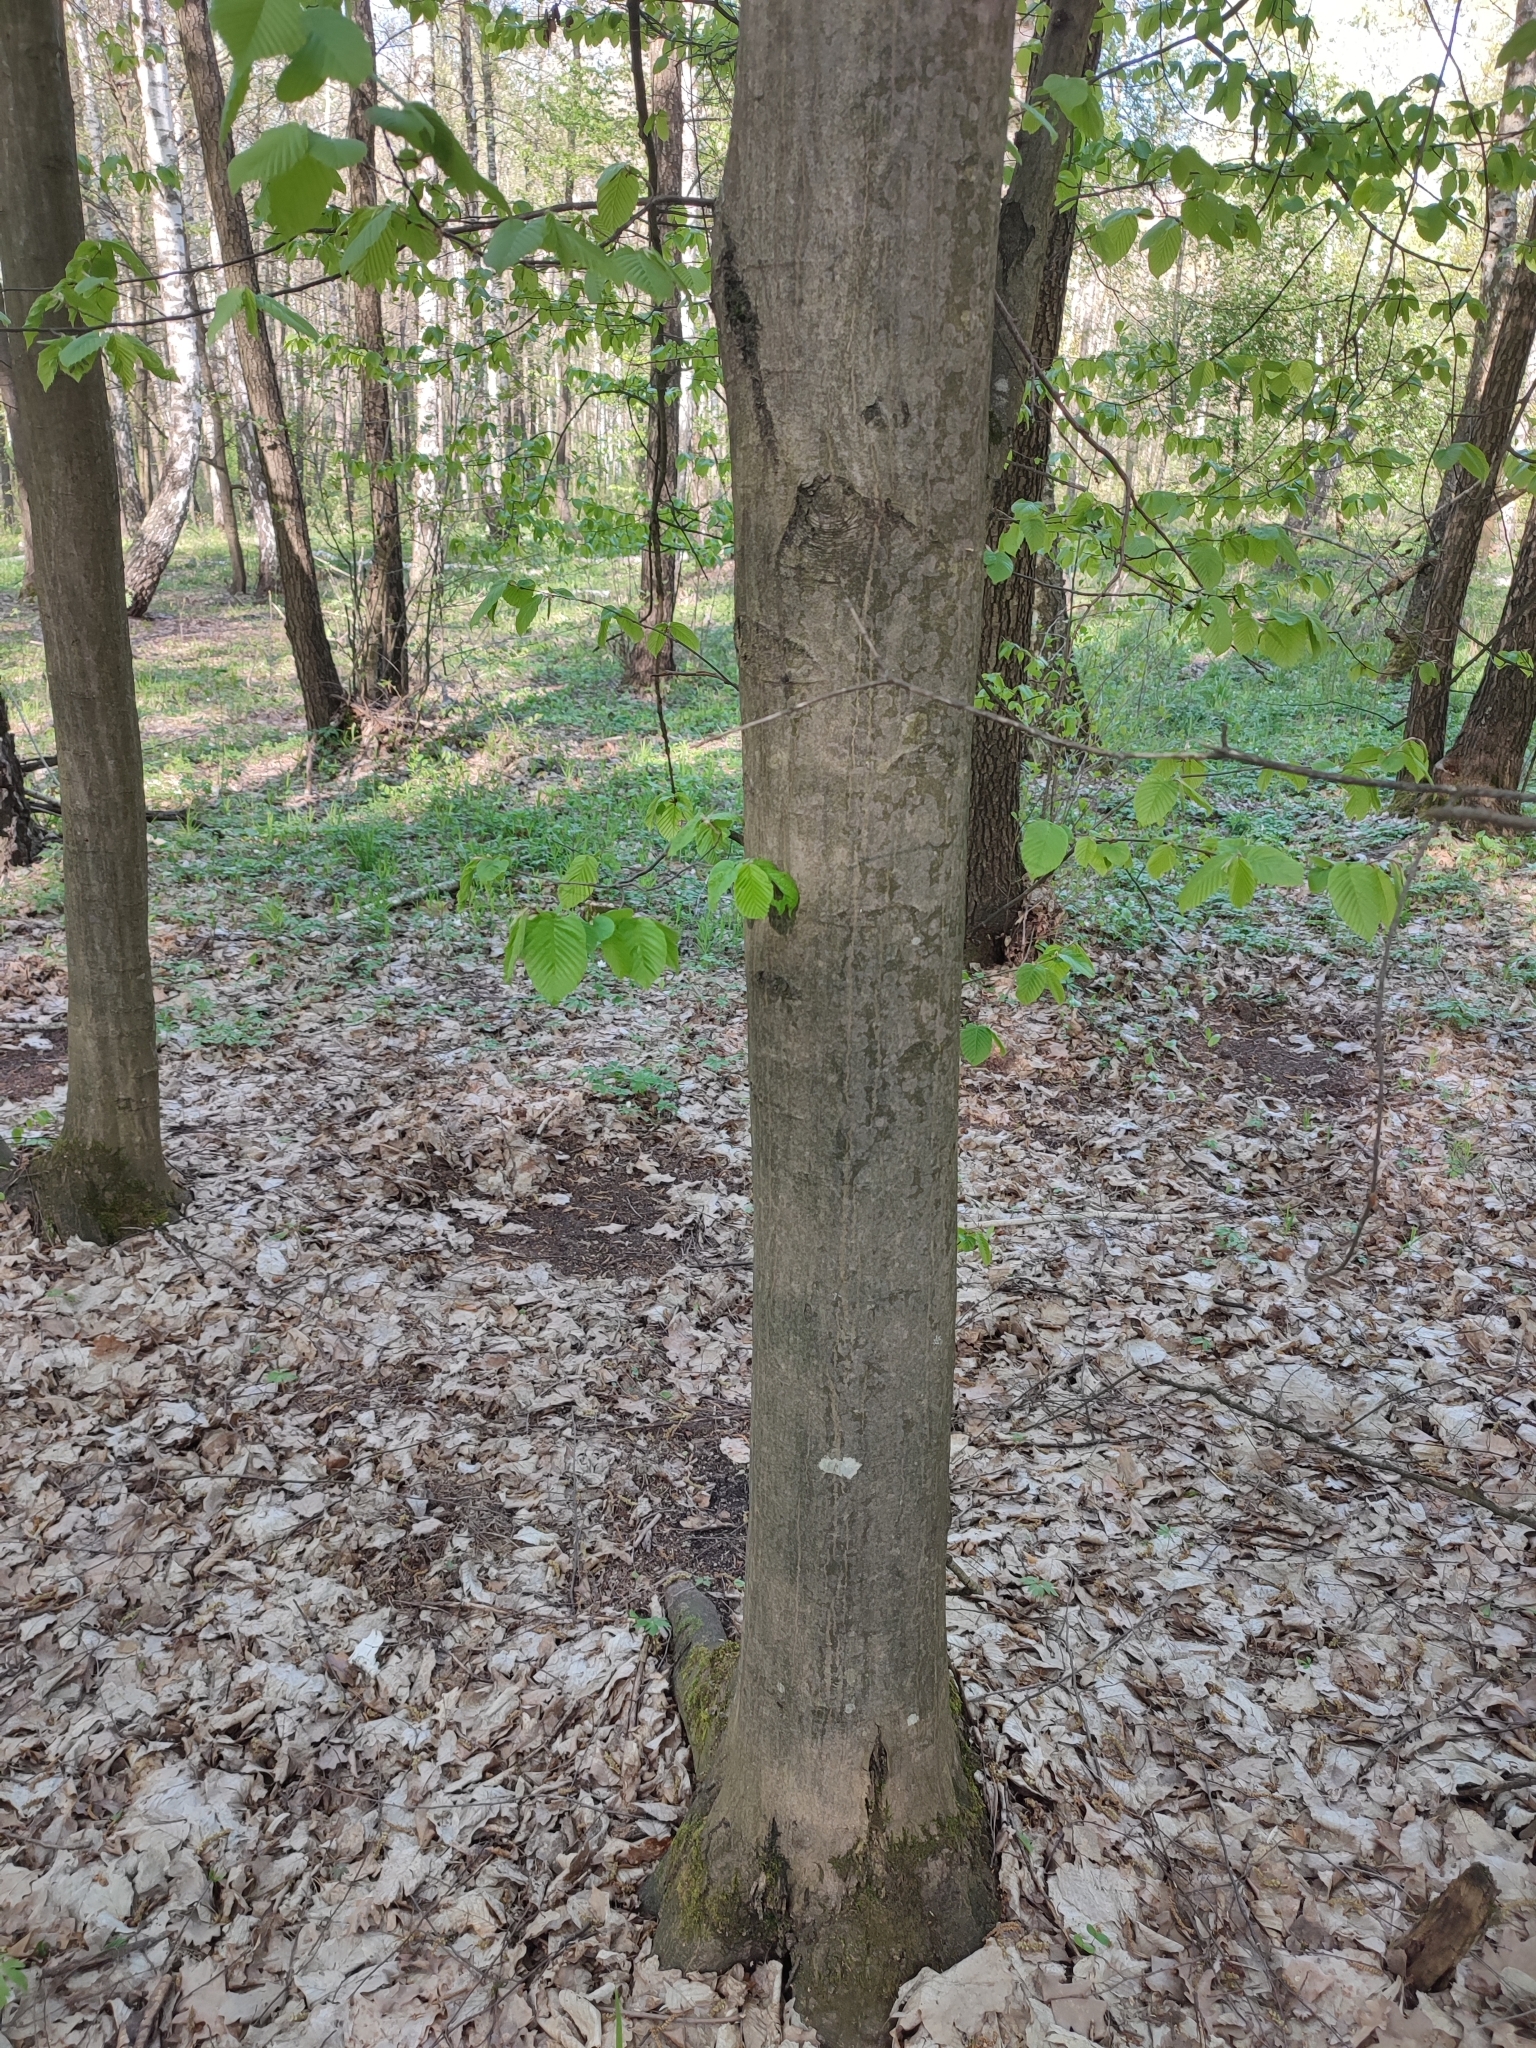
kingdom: Plantae
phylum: Tracheophyta
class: Magnoliopsida
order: Fagales
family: Betulaceae
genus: Carpinus
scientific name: Carpinus betulus
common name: Hornbeam
